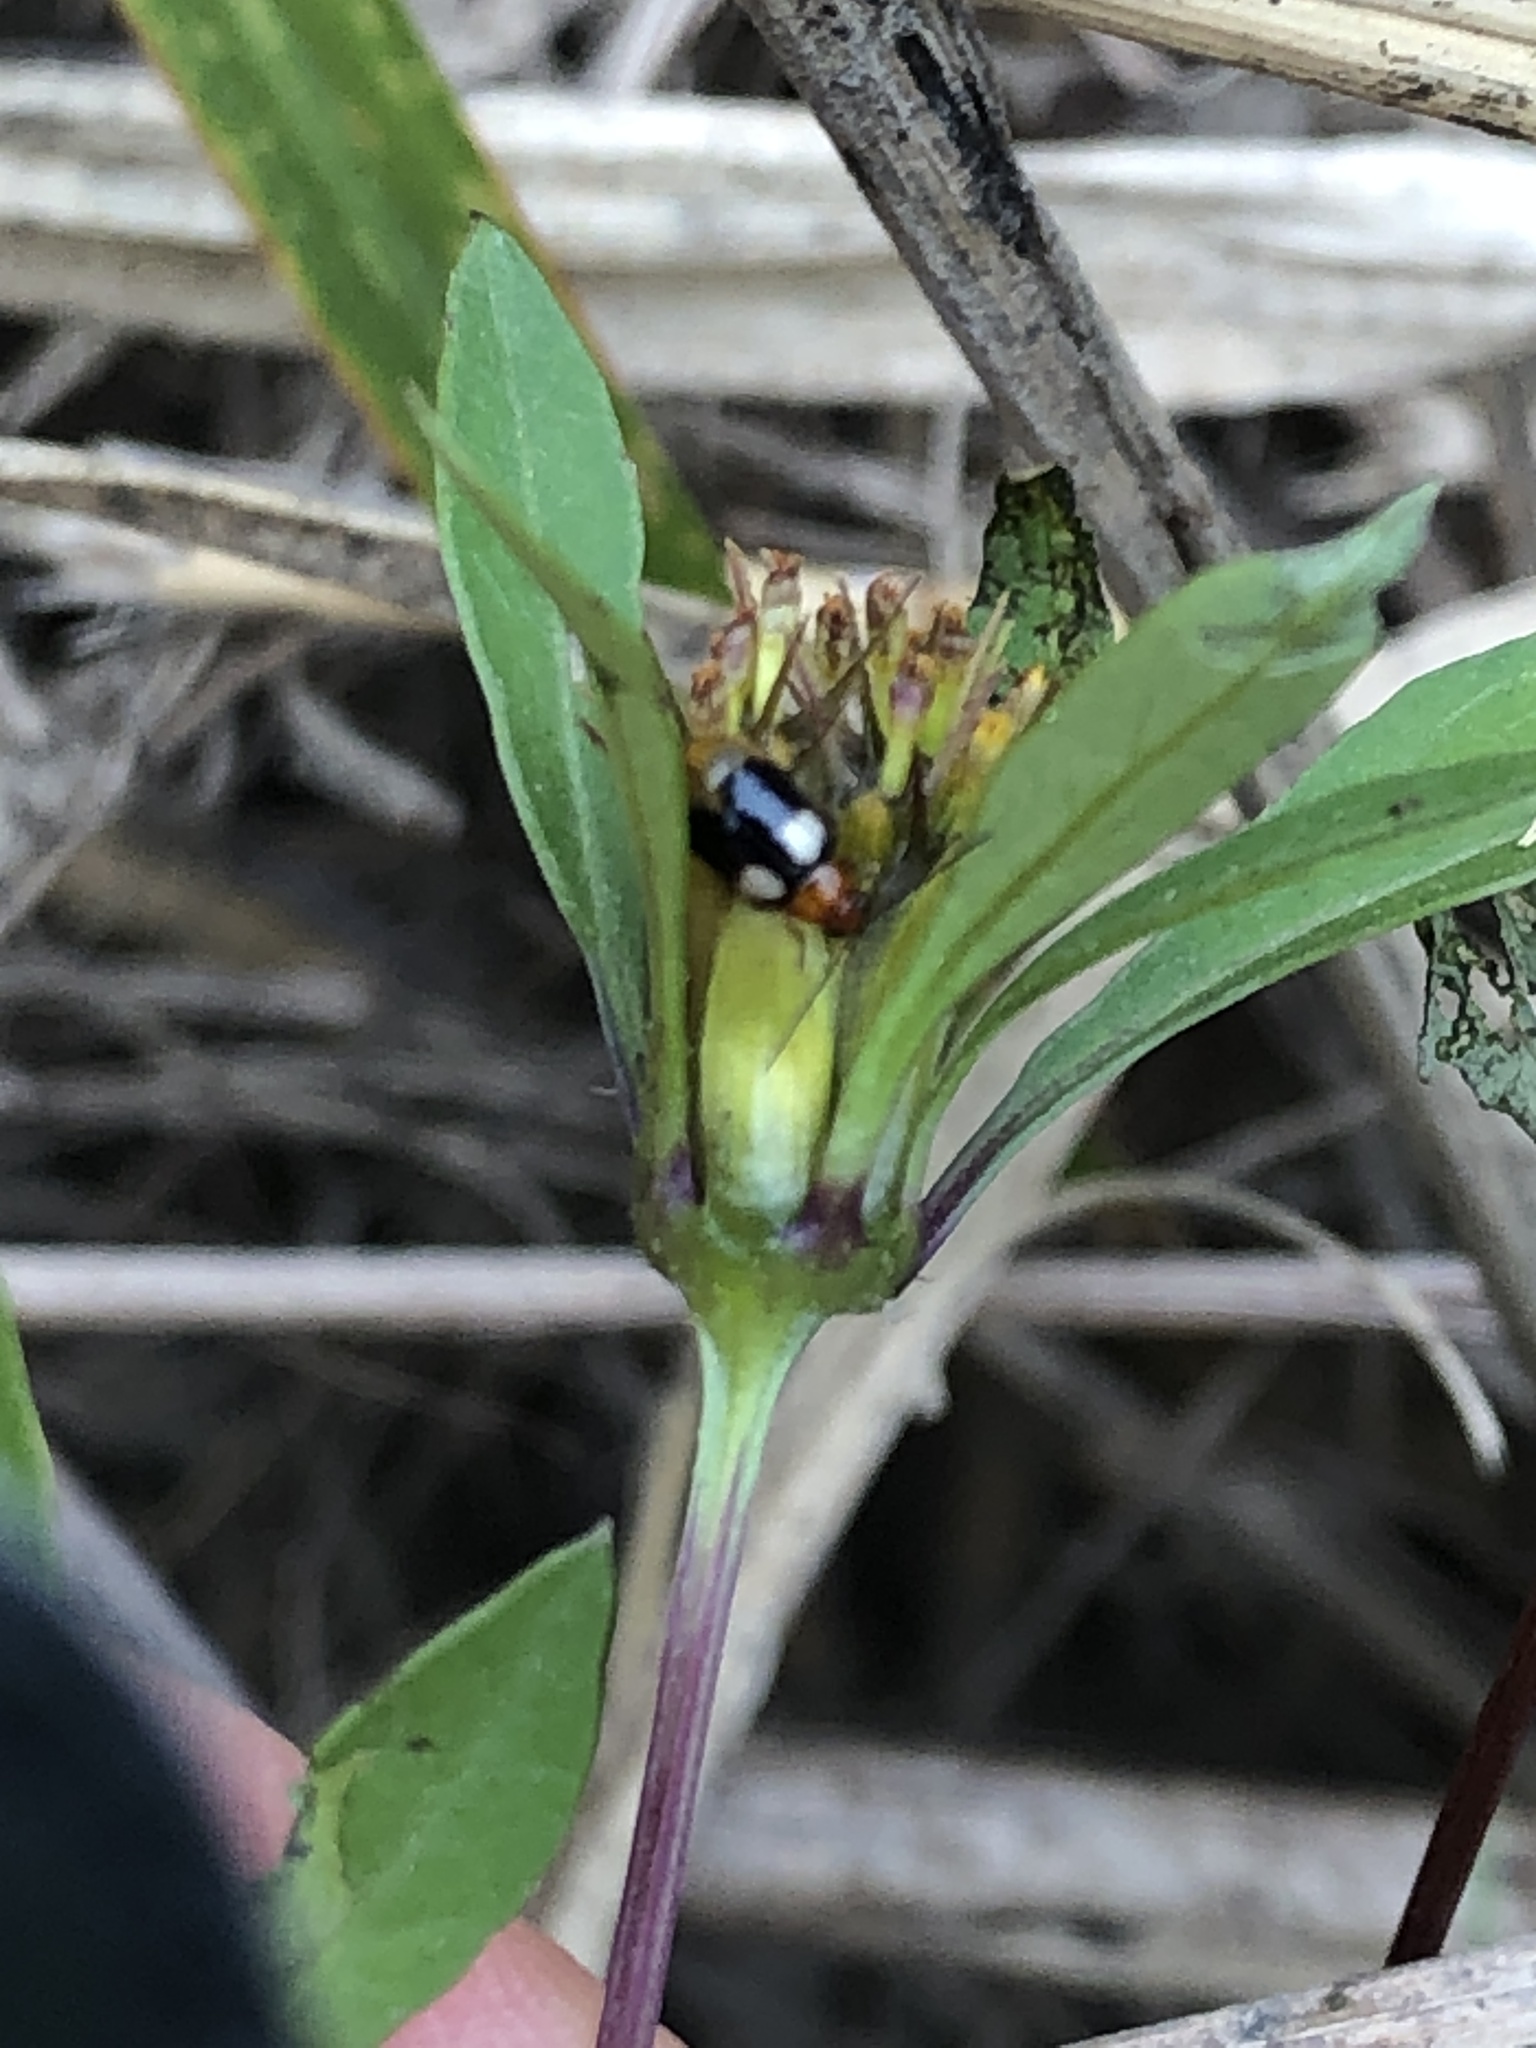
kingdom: Animalia
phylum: Arthropoda
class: Insecta
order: Coleoptera
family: Chrysomelidae
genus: Monolepta
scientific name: Monolepta quadriguttata
